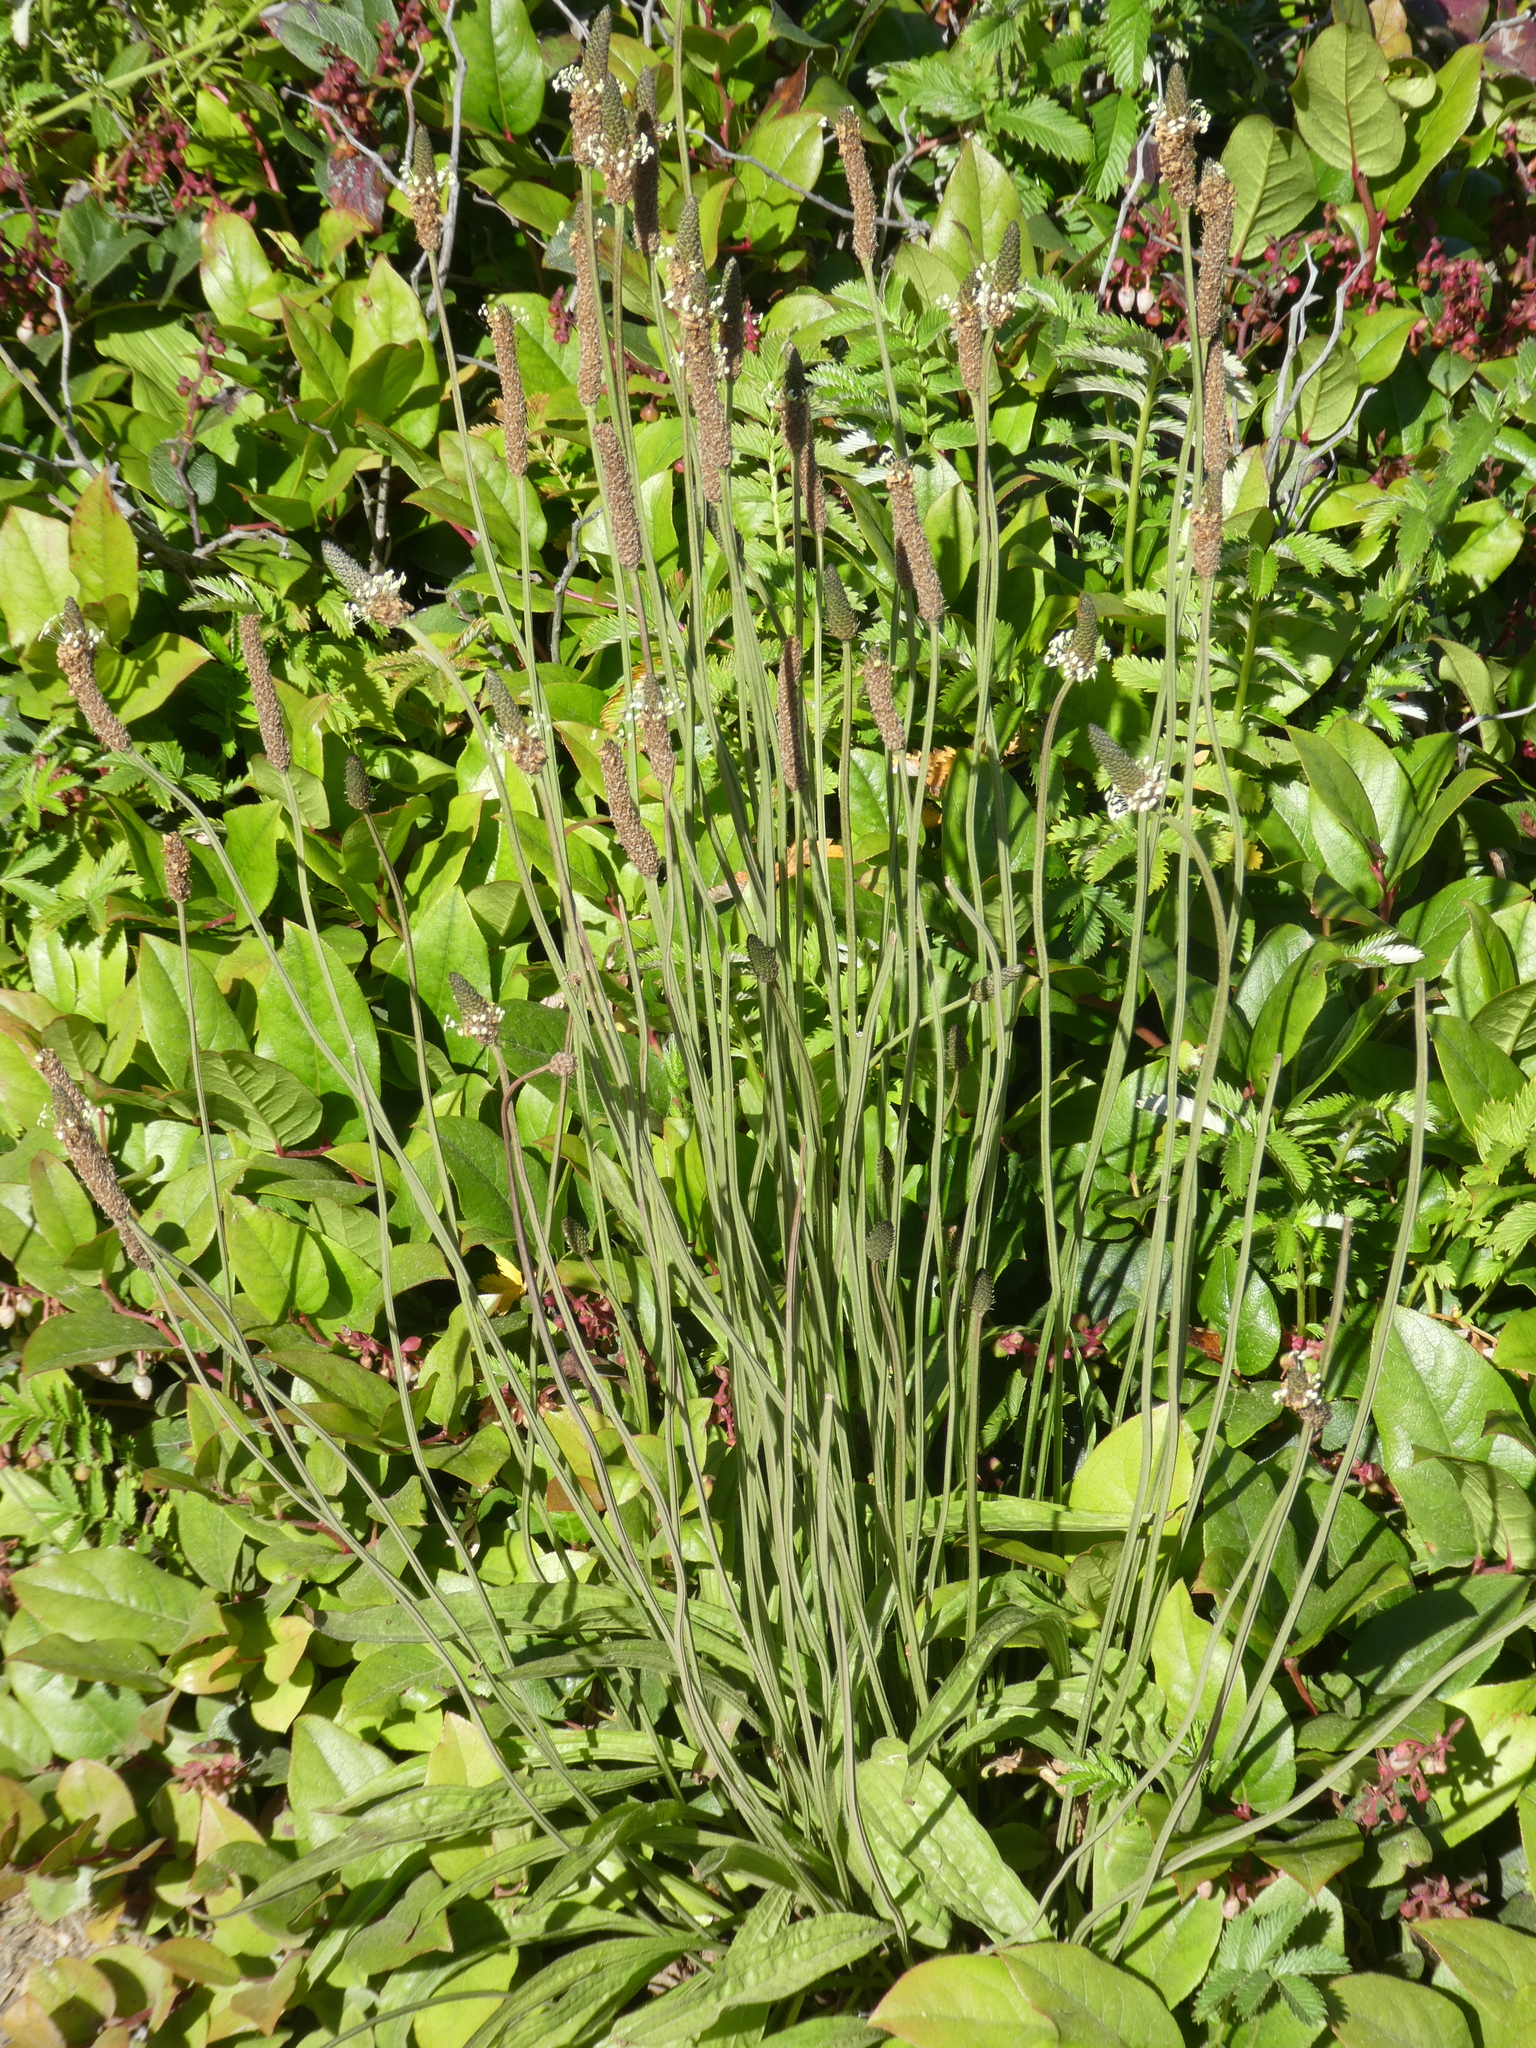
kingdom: Plantae
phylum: Tracheophyta
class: Magnoliopsida
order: Lamiales
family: Plantaginaceae
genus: Plantago
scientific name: Plantago lanceolata
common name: Ribwort plantain
